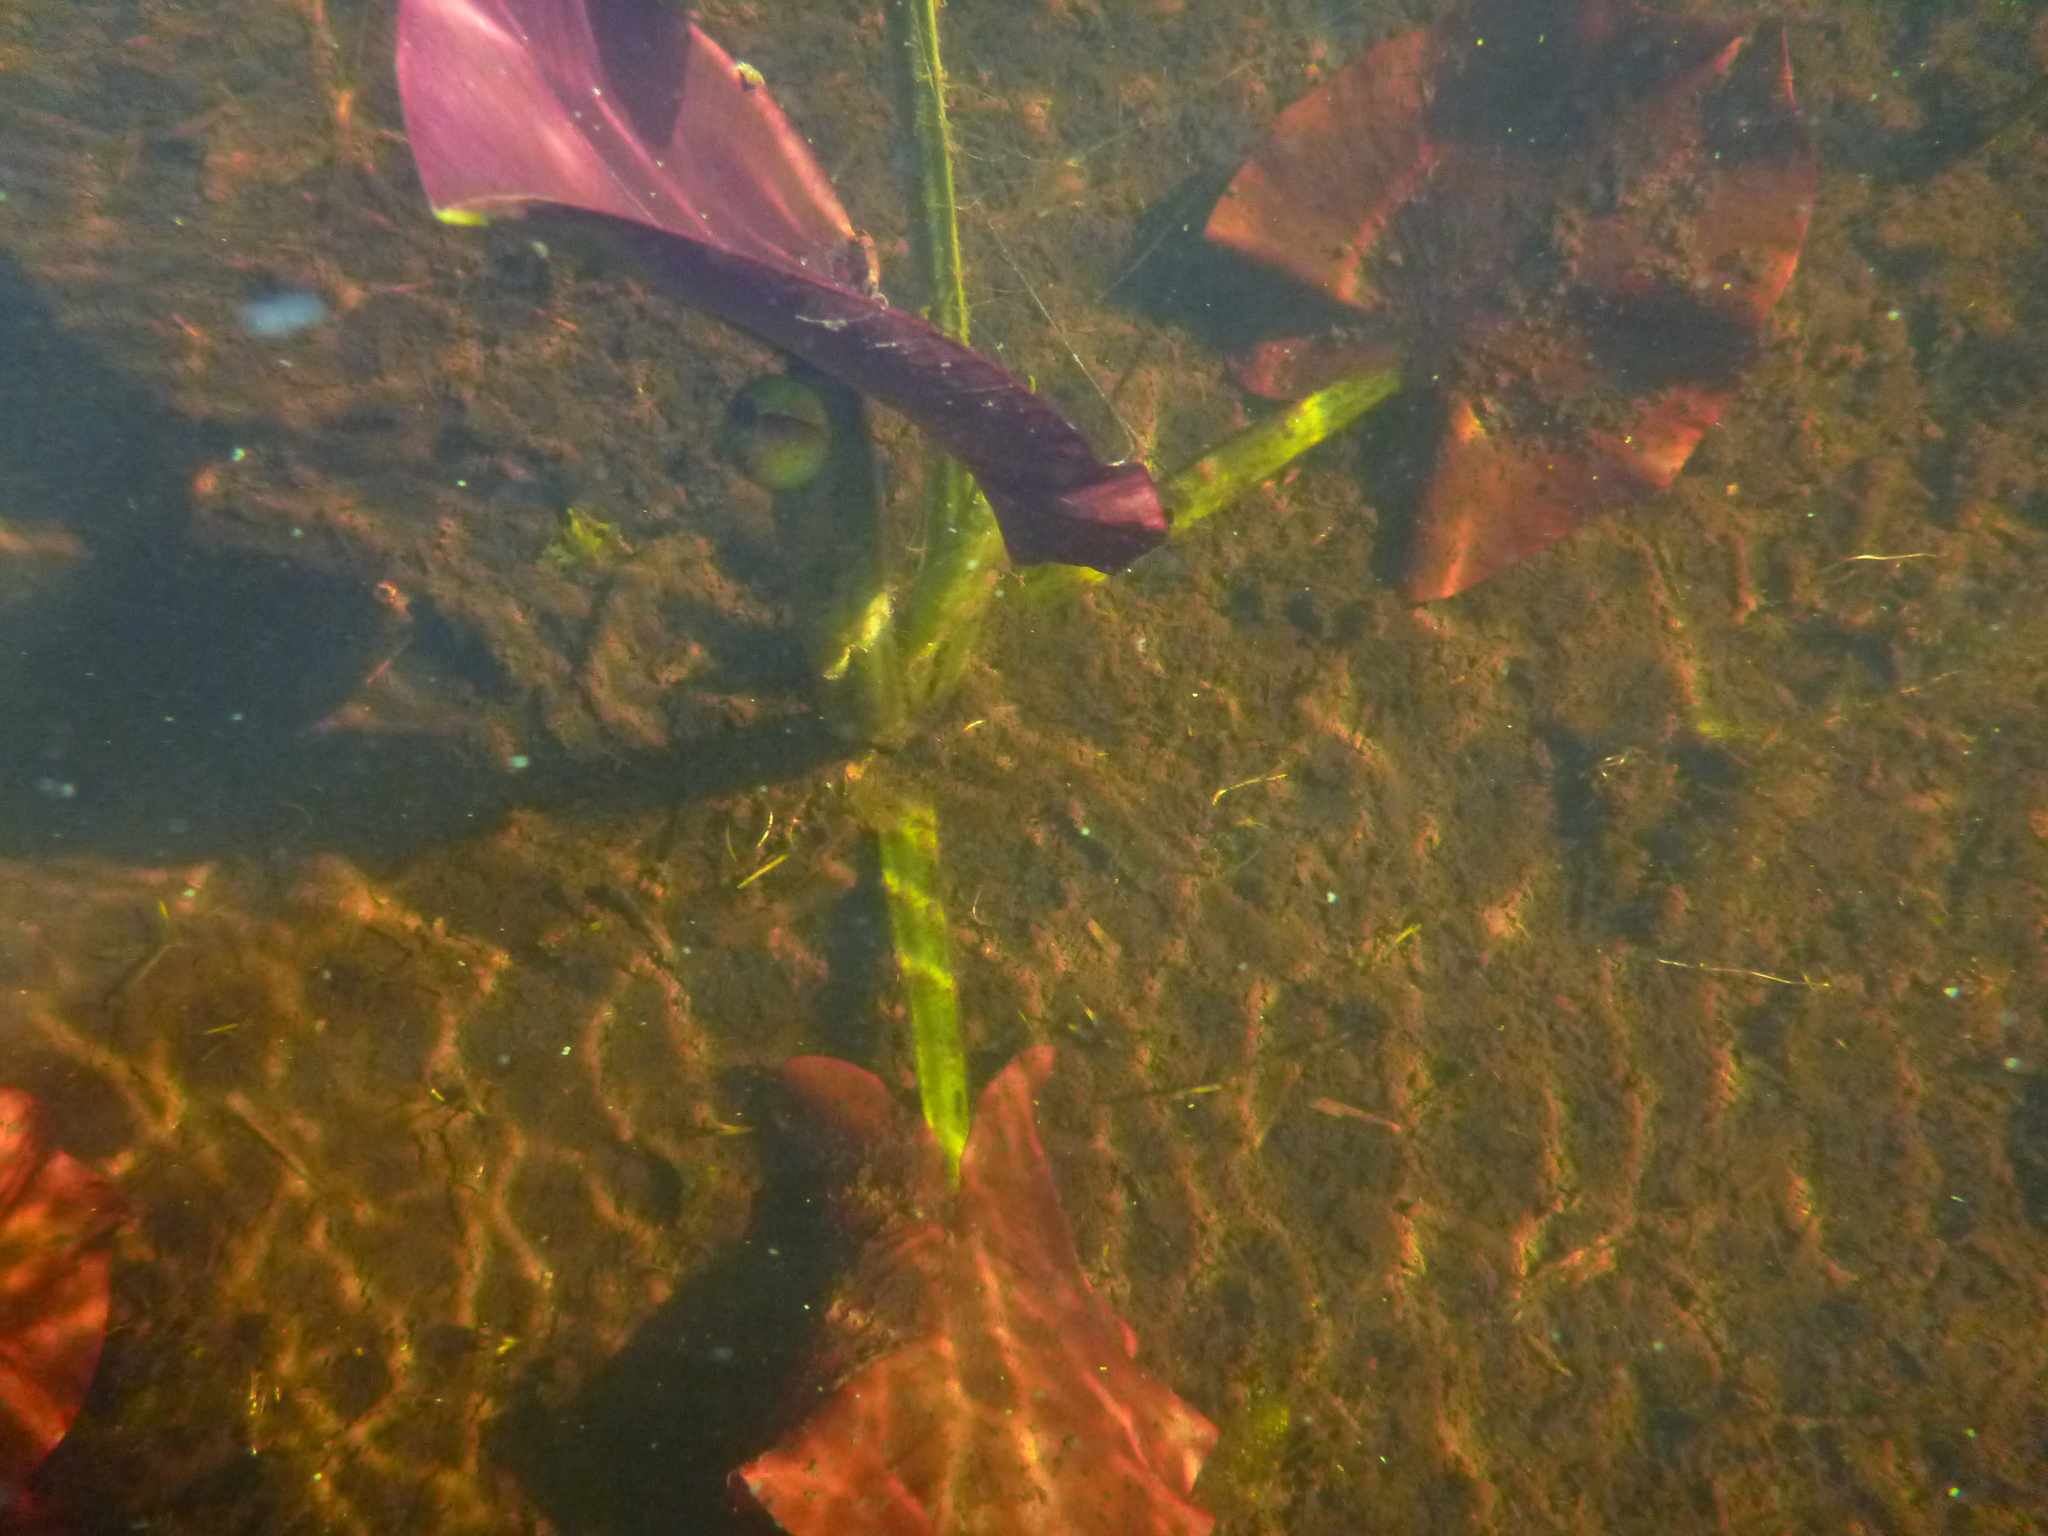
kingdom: Plantae
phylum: Tracheophyta
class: Magnoliopsida
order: Nymphaeales
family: Nymphaeaceae
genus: Nuphar
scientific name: Nuphar variegata
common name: Beaver-root
